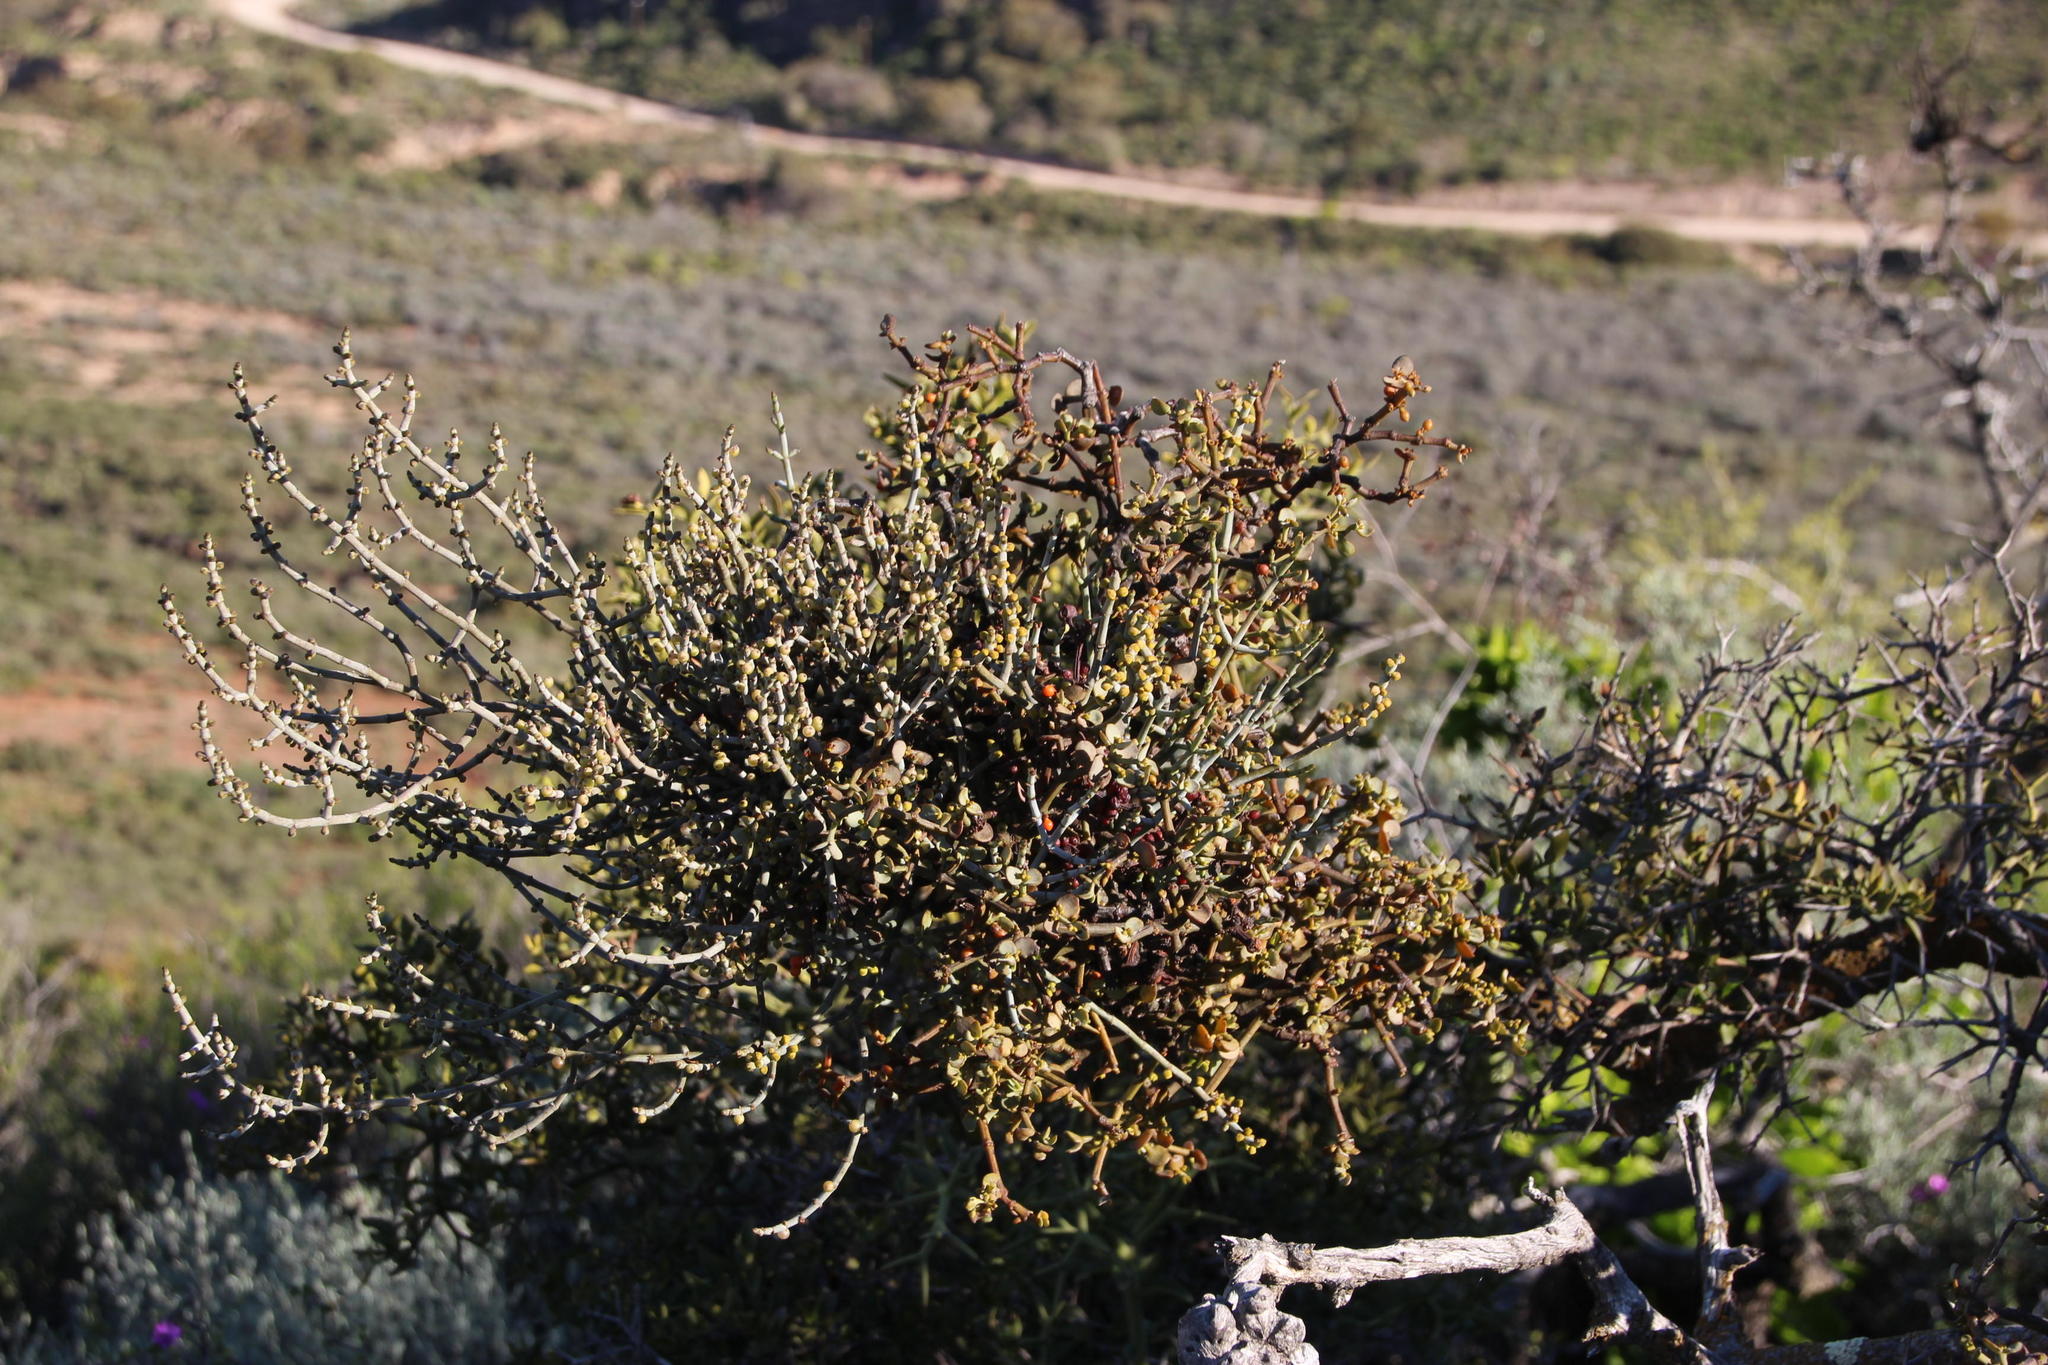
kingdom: Plantae
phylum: Tracheophyta
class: Magnoliopsida
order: Gentianales
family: Apocynaceae
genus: Carissa
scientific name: Carissa haematocarpa
